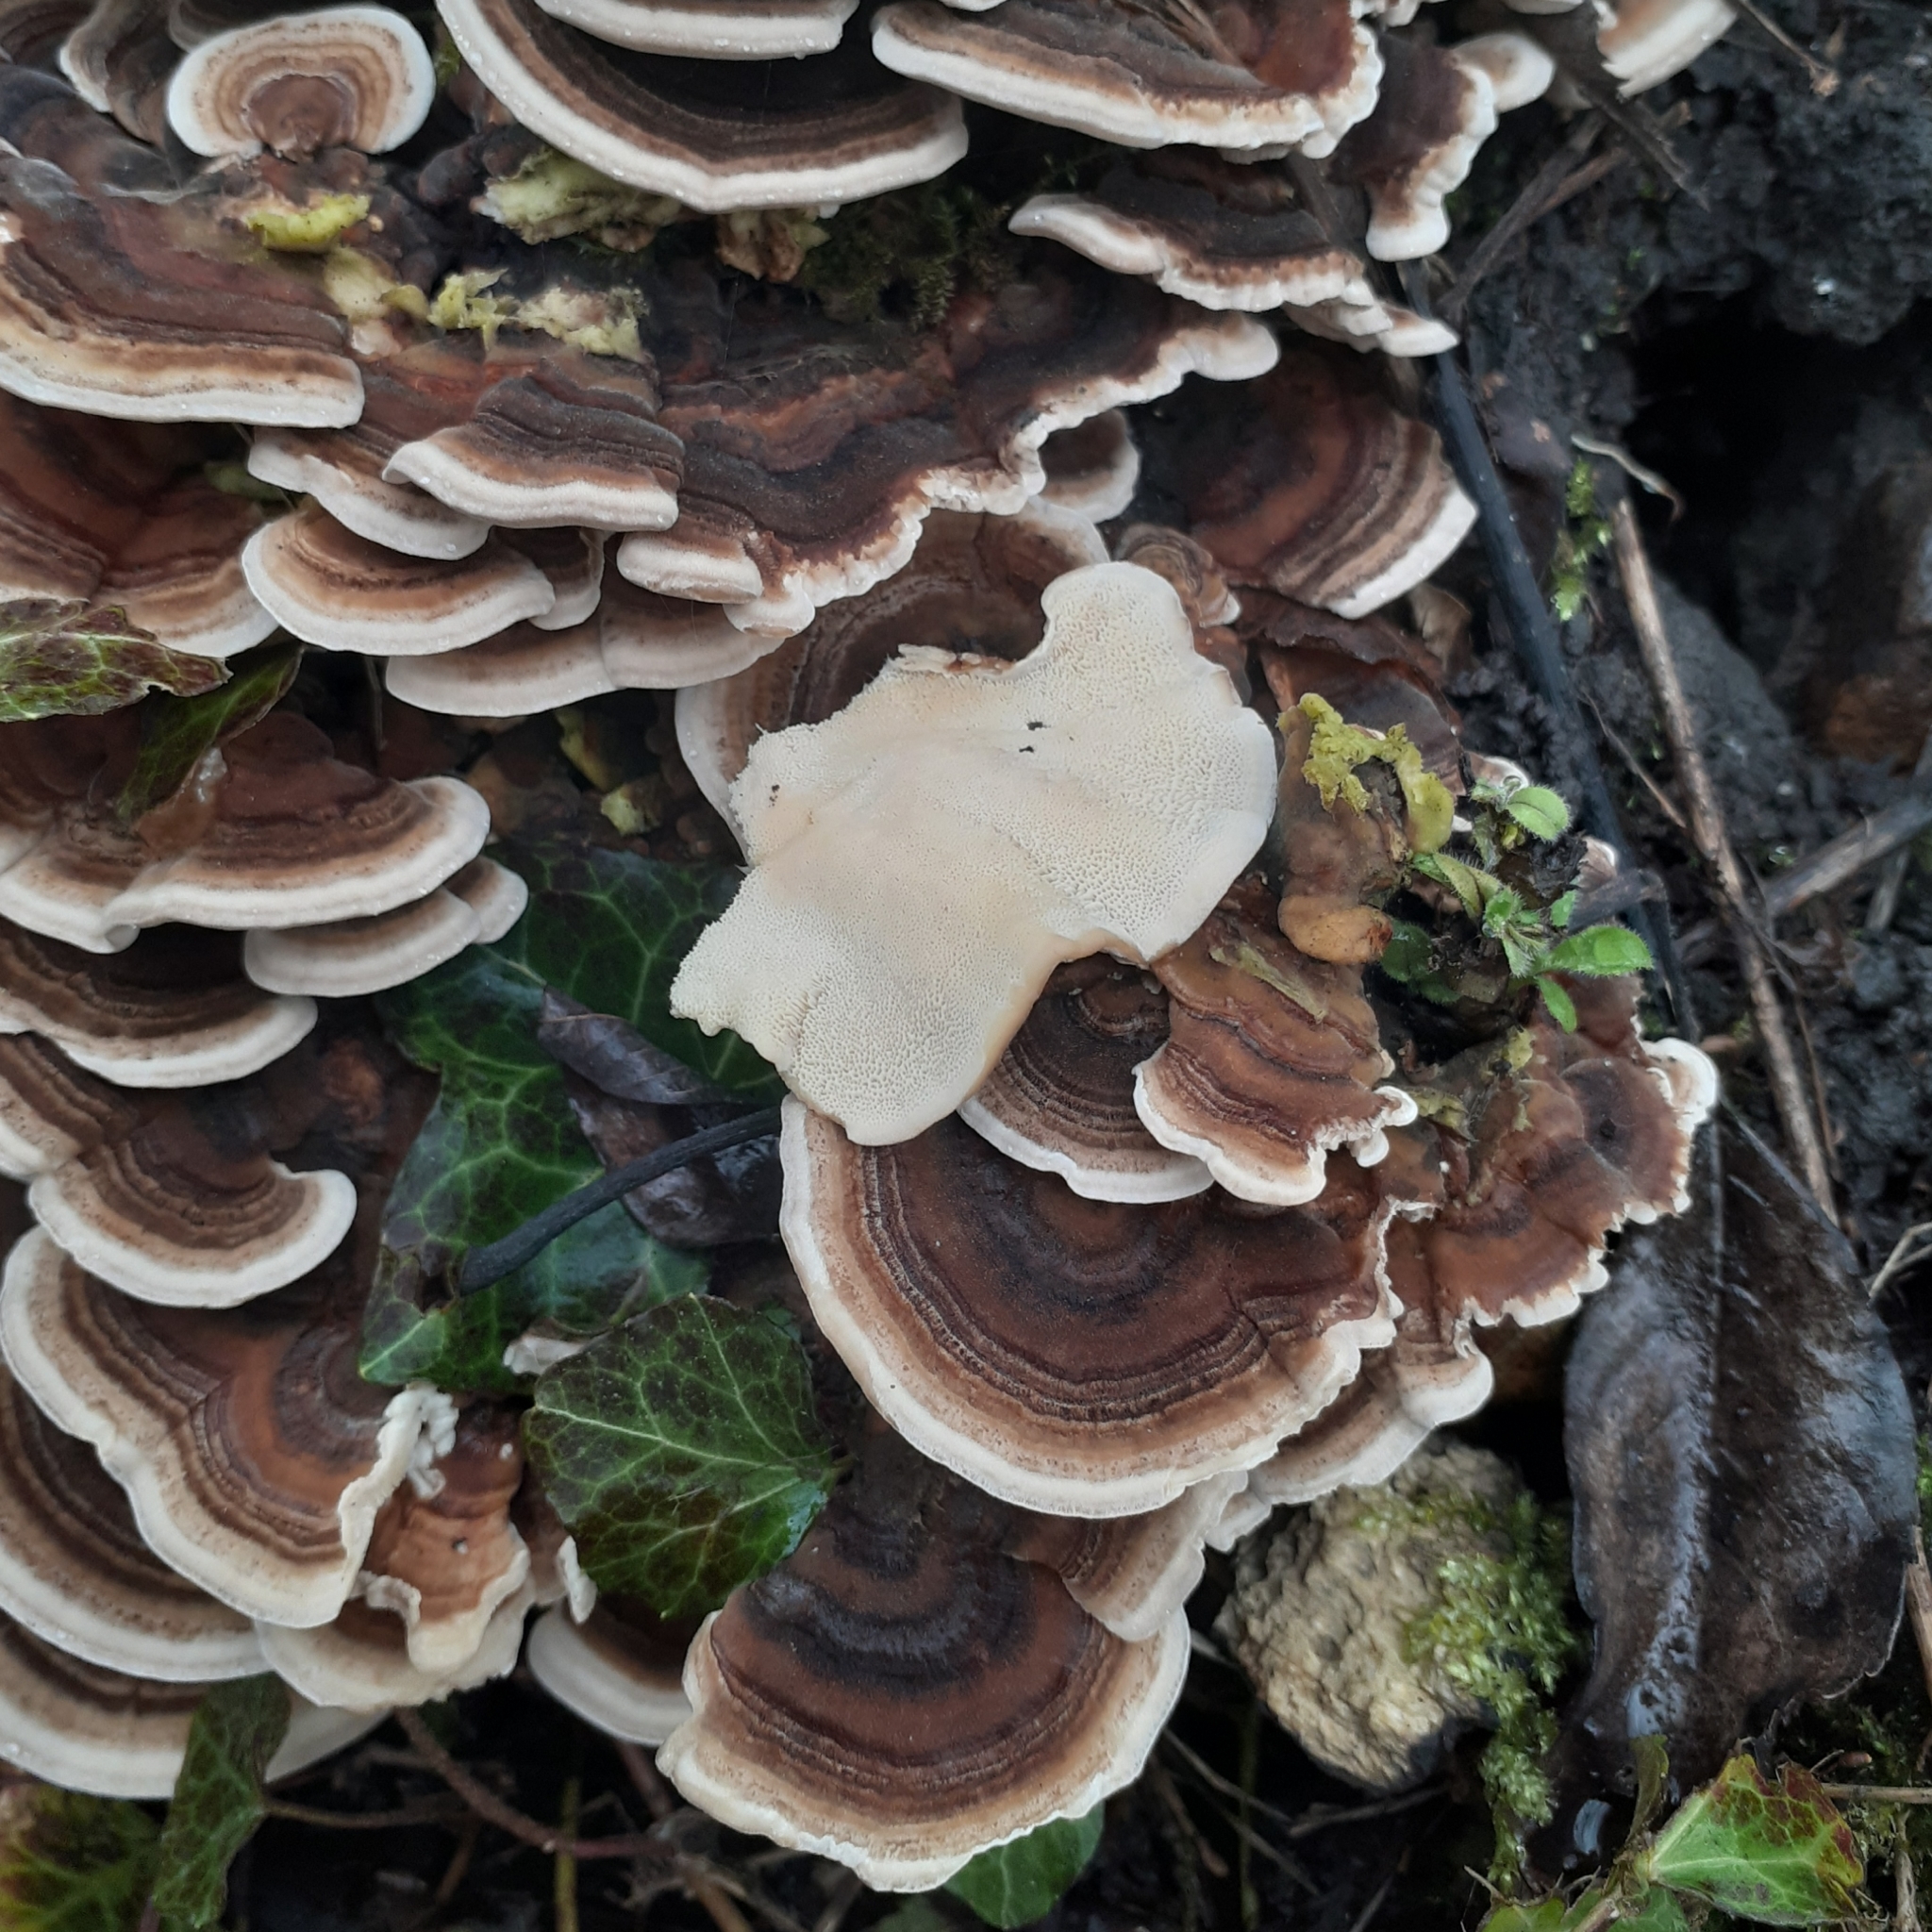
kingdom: Fungi
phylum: Basidiomycota
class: Agaricomycetes
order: Polyporales
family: Polyporaceae
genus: Trametes
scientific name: Trametes versicolor
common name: Turkeytail
